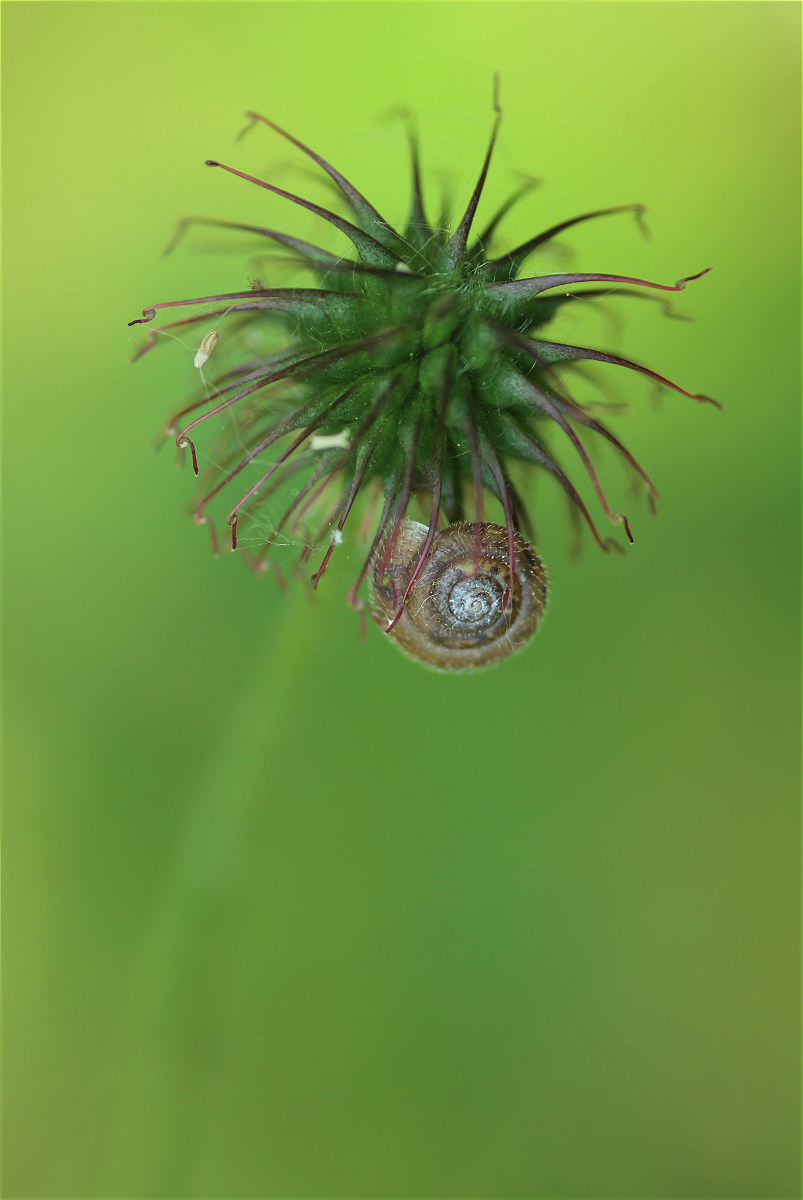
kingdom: Animalia
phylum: Mollusca
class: Gastropoda
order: Stylommatophora
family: Hygromiidae
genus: Trochulus
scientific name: Trochulus hispidus
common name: Hairy snail
